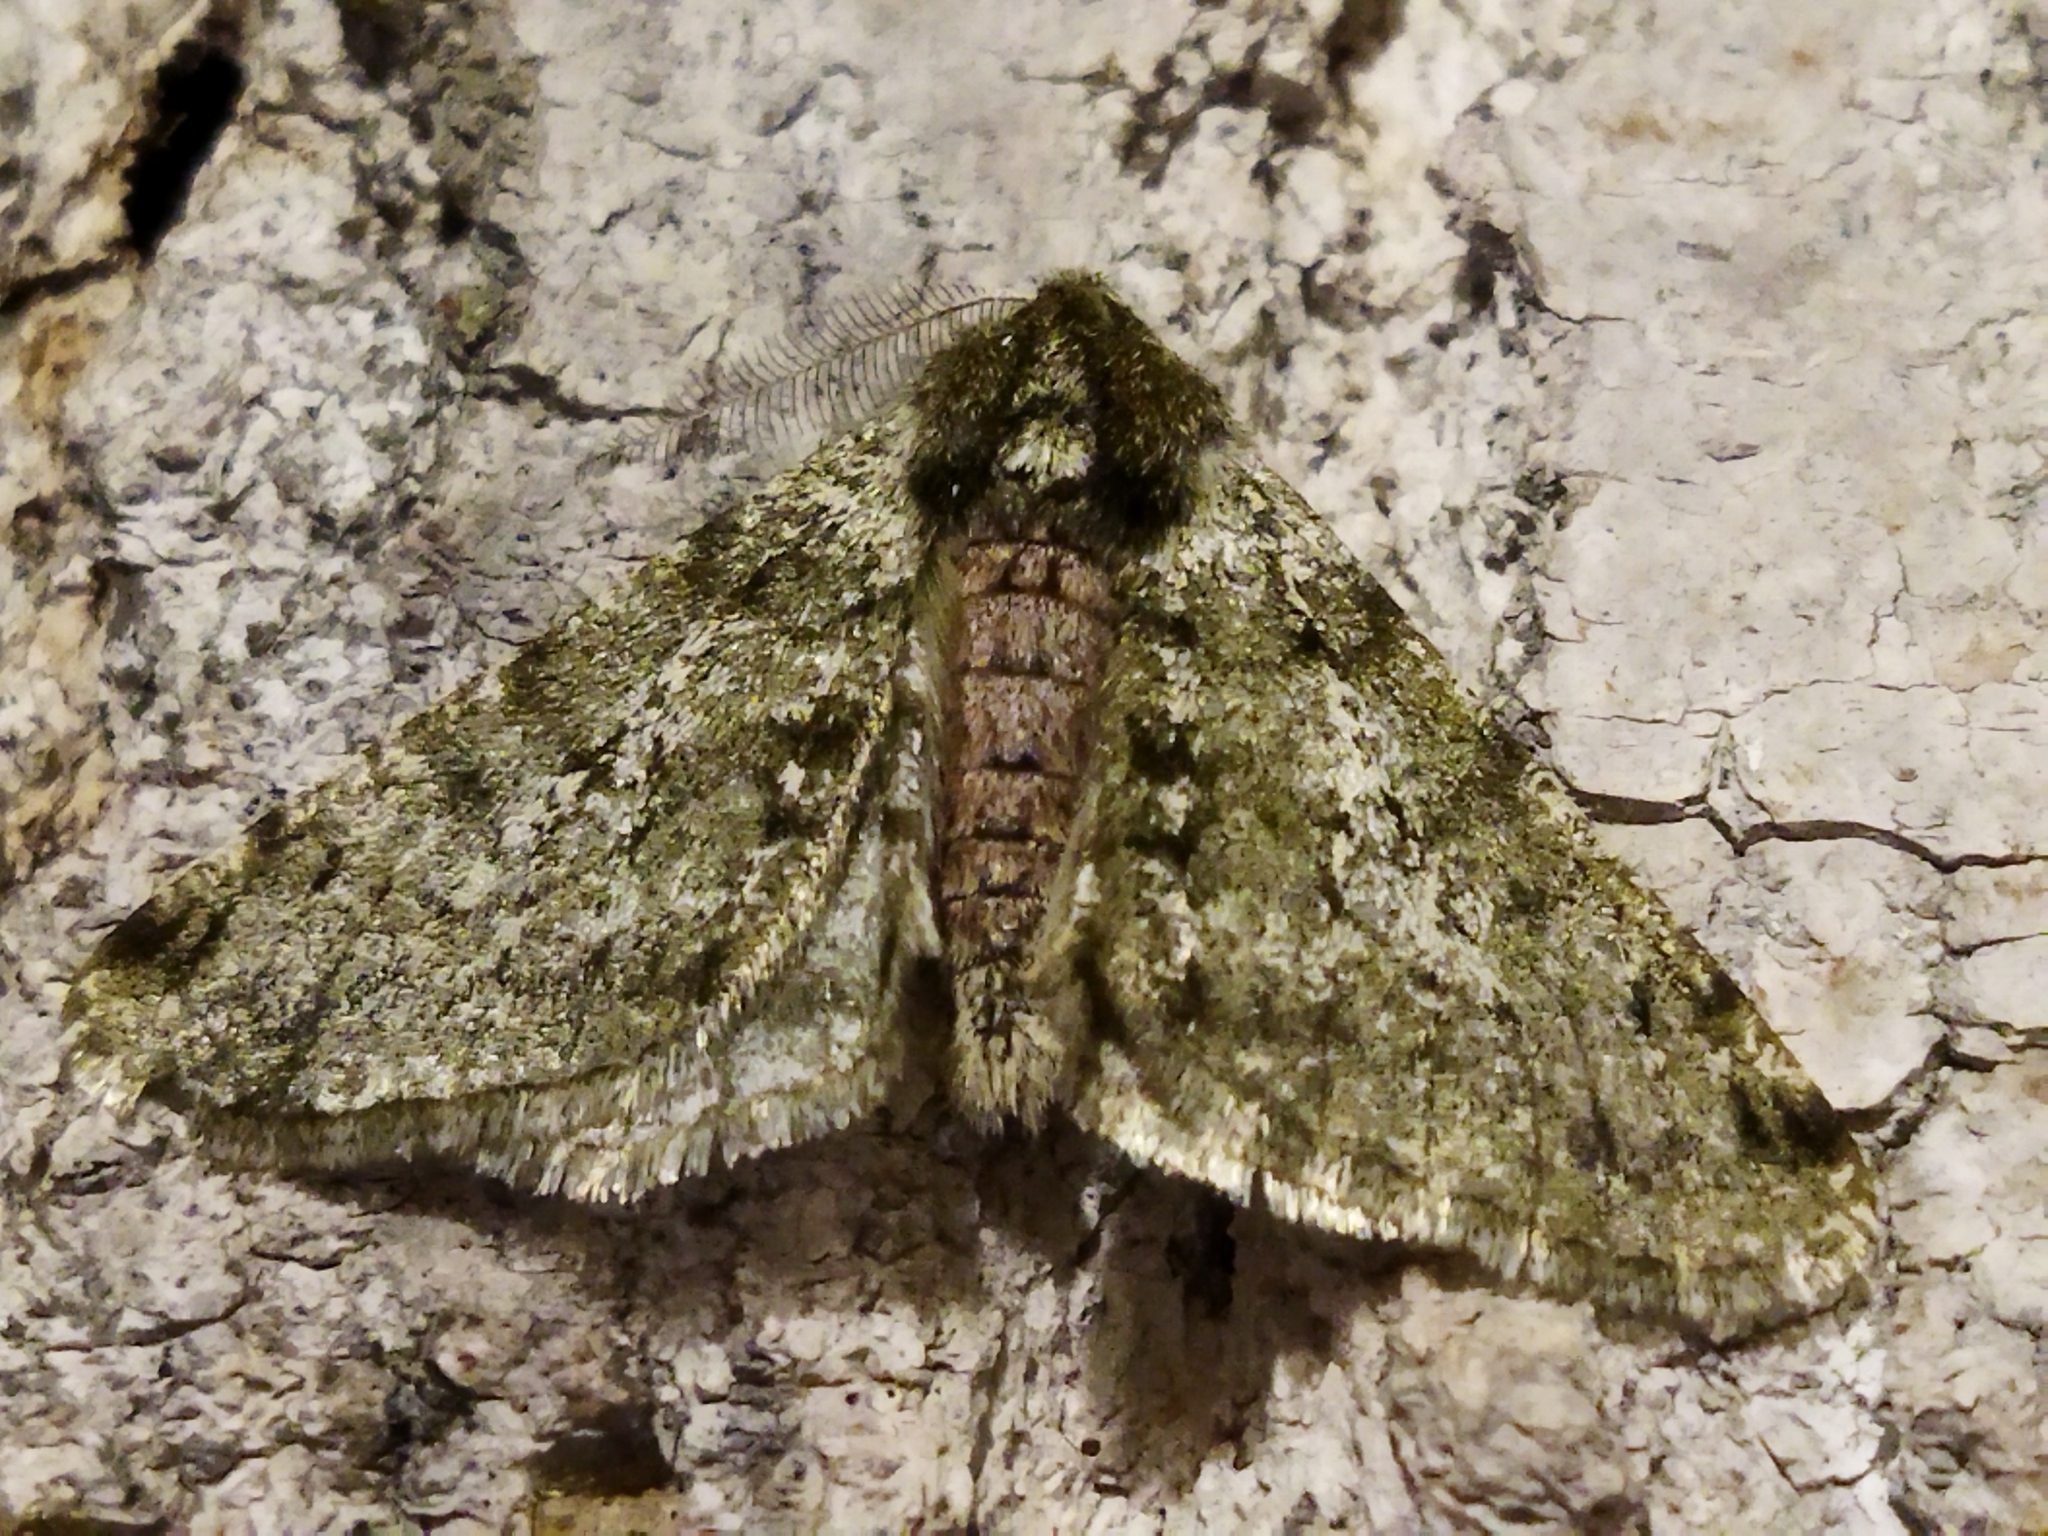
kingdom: Animalia
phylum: Arthropoda
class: Insecta
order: Lepidoptera
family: Geometridae
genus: Phigalia
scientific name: Phigalia pilosaria
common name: Pale brindled beauty
